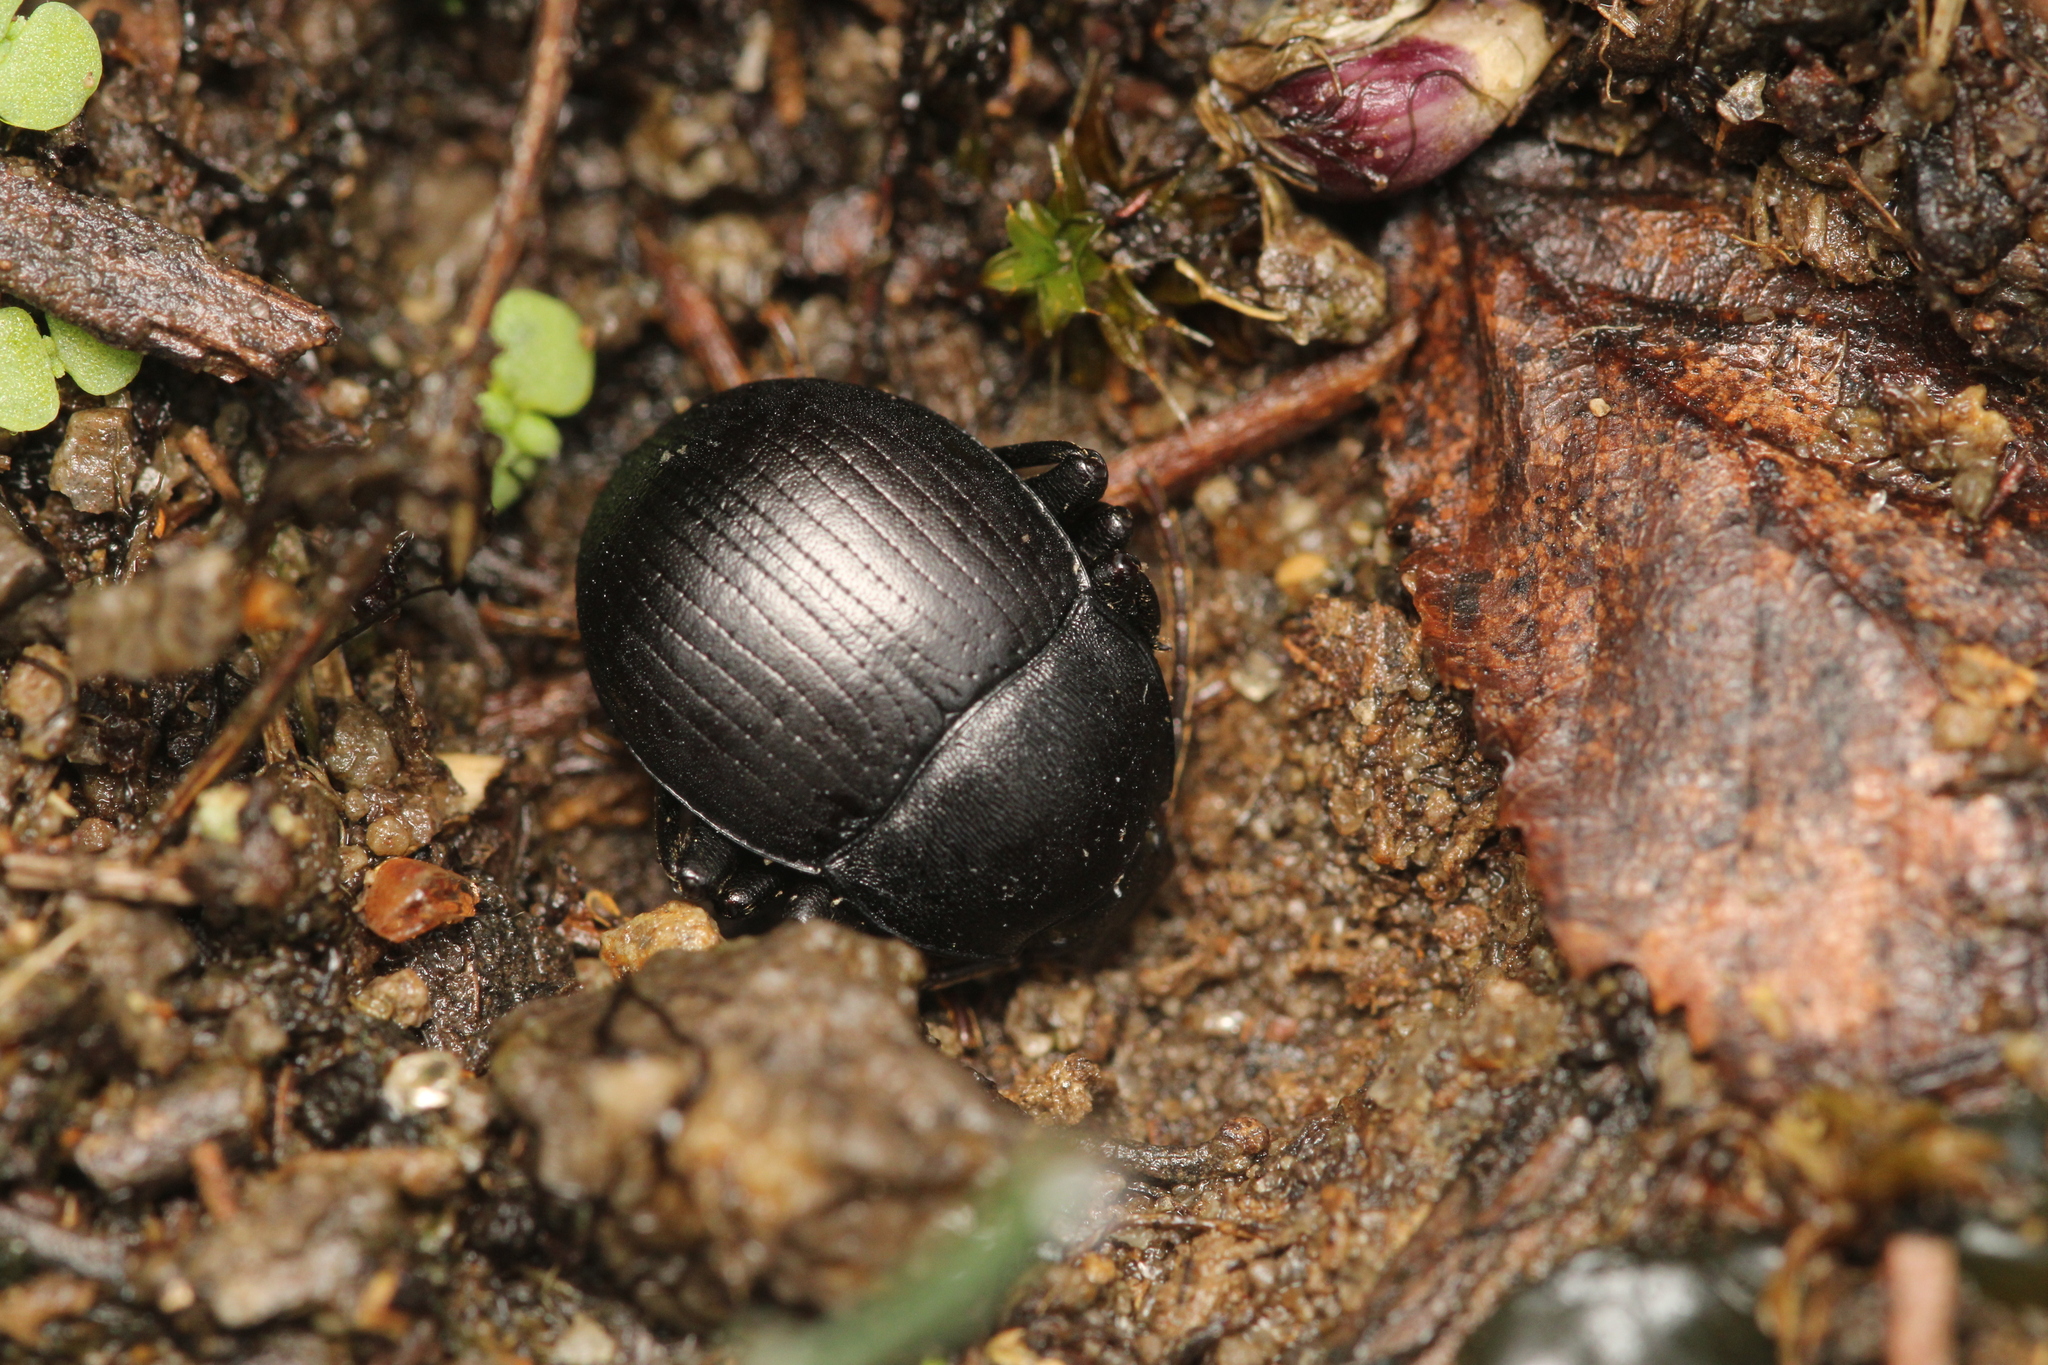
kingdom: Animalia
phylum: Arthropoda
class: Insecta
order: Coleoptera
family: Tenebrionidae
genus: Accanthopus
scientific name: Accanthopus velikensis
